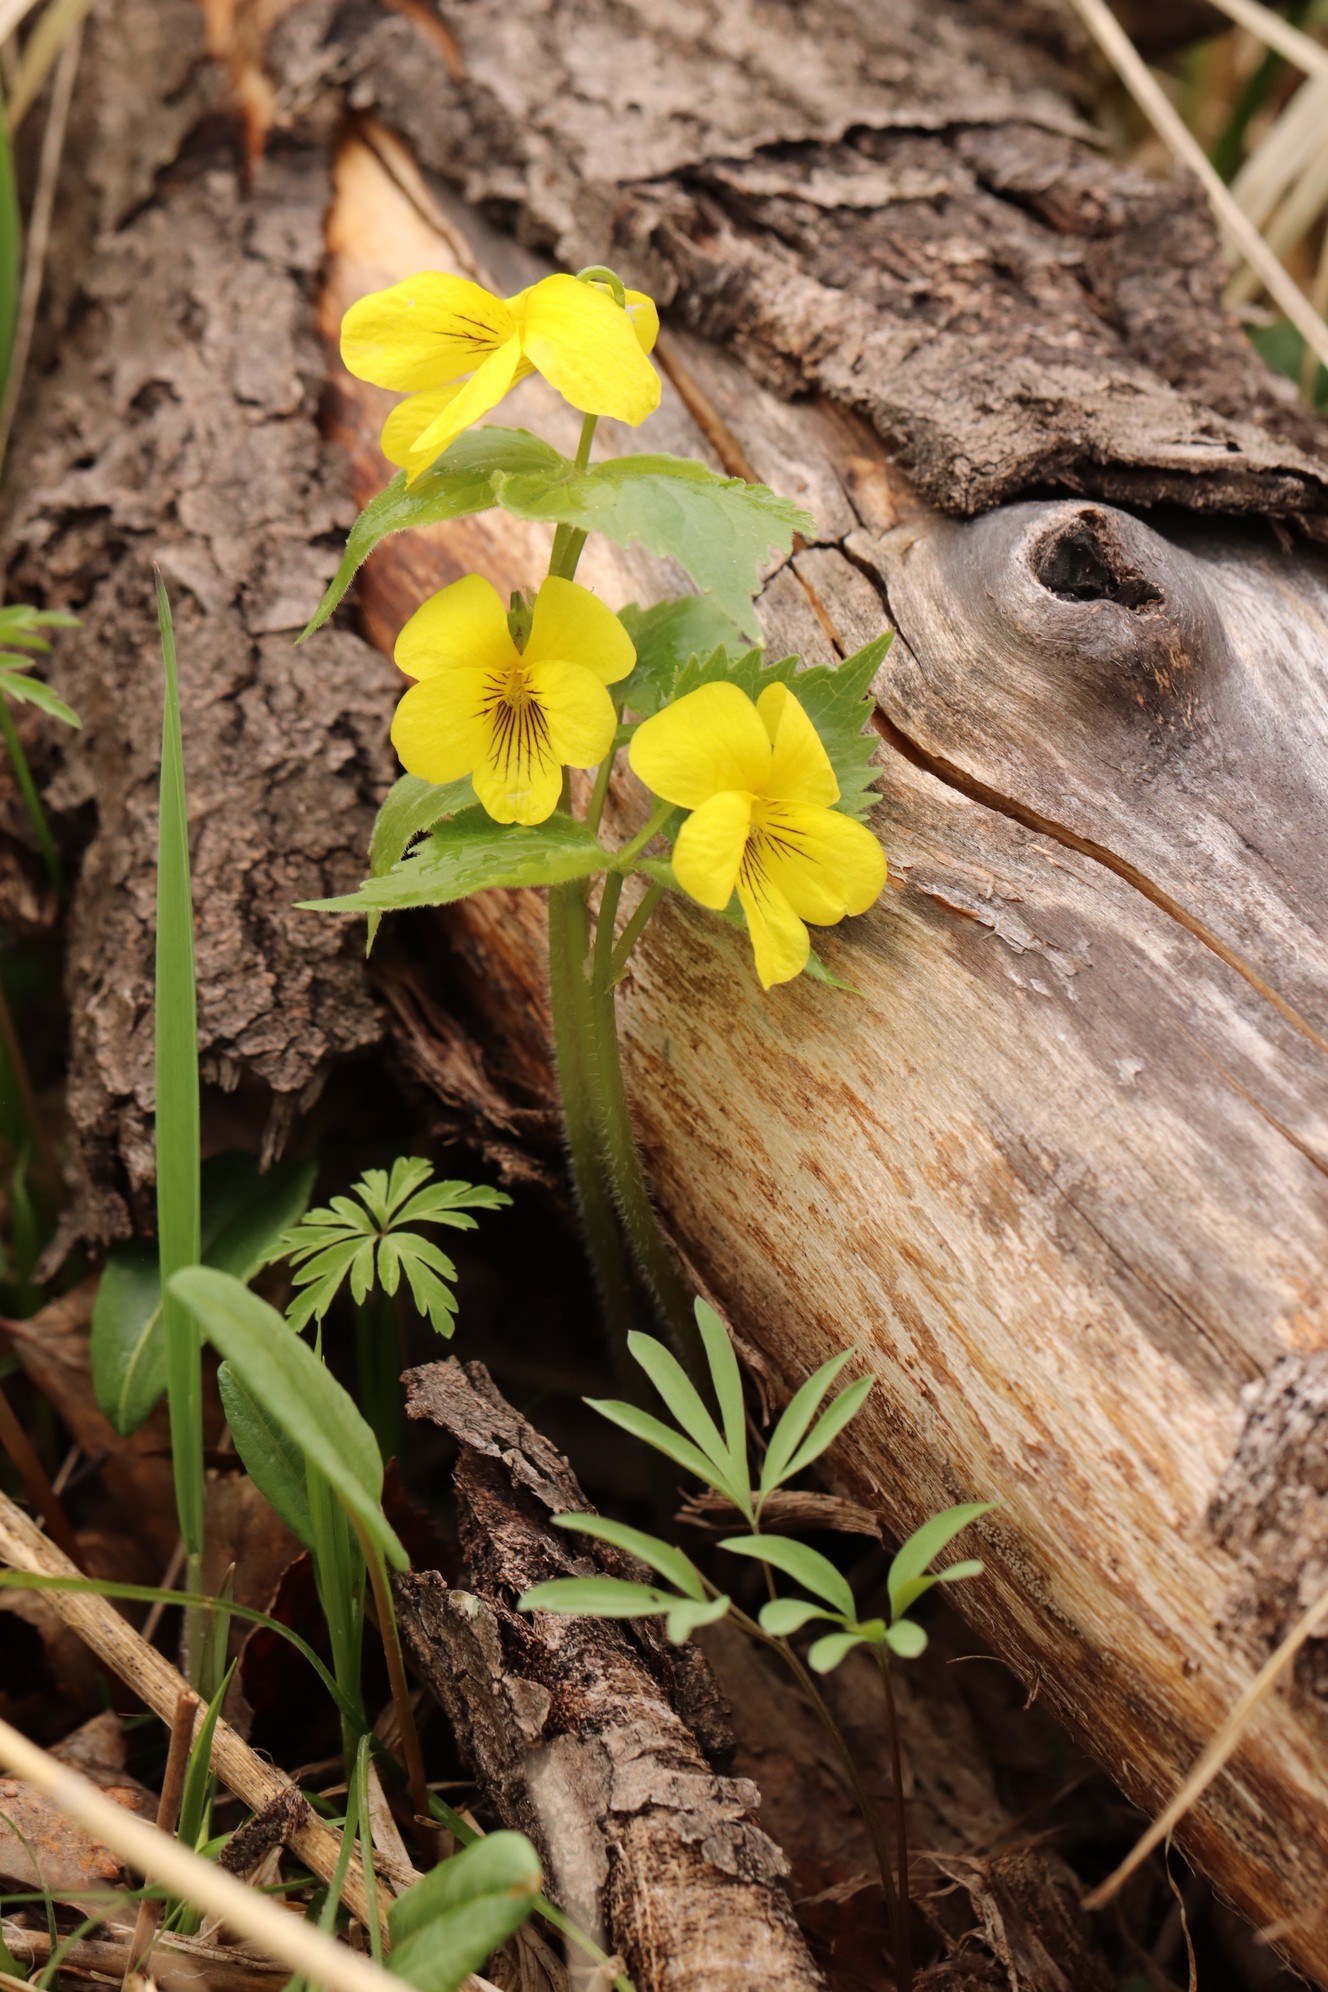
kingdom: Plantae
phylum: Tracheophyta
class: Magnoliopsida
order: Malpighiales
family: Violaceae
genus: Viola
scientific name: Viola uniflora
